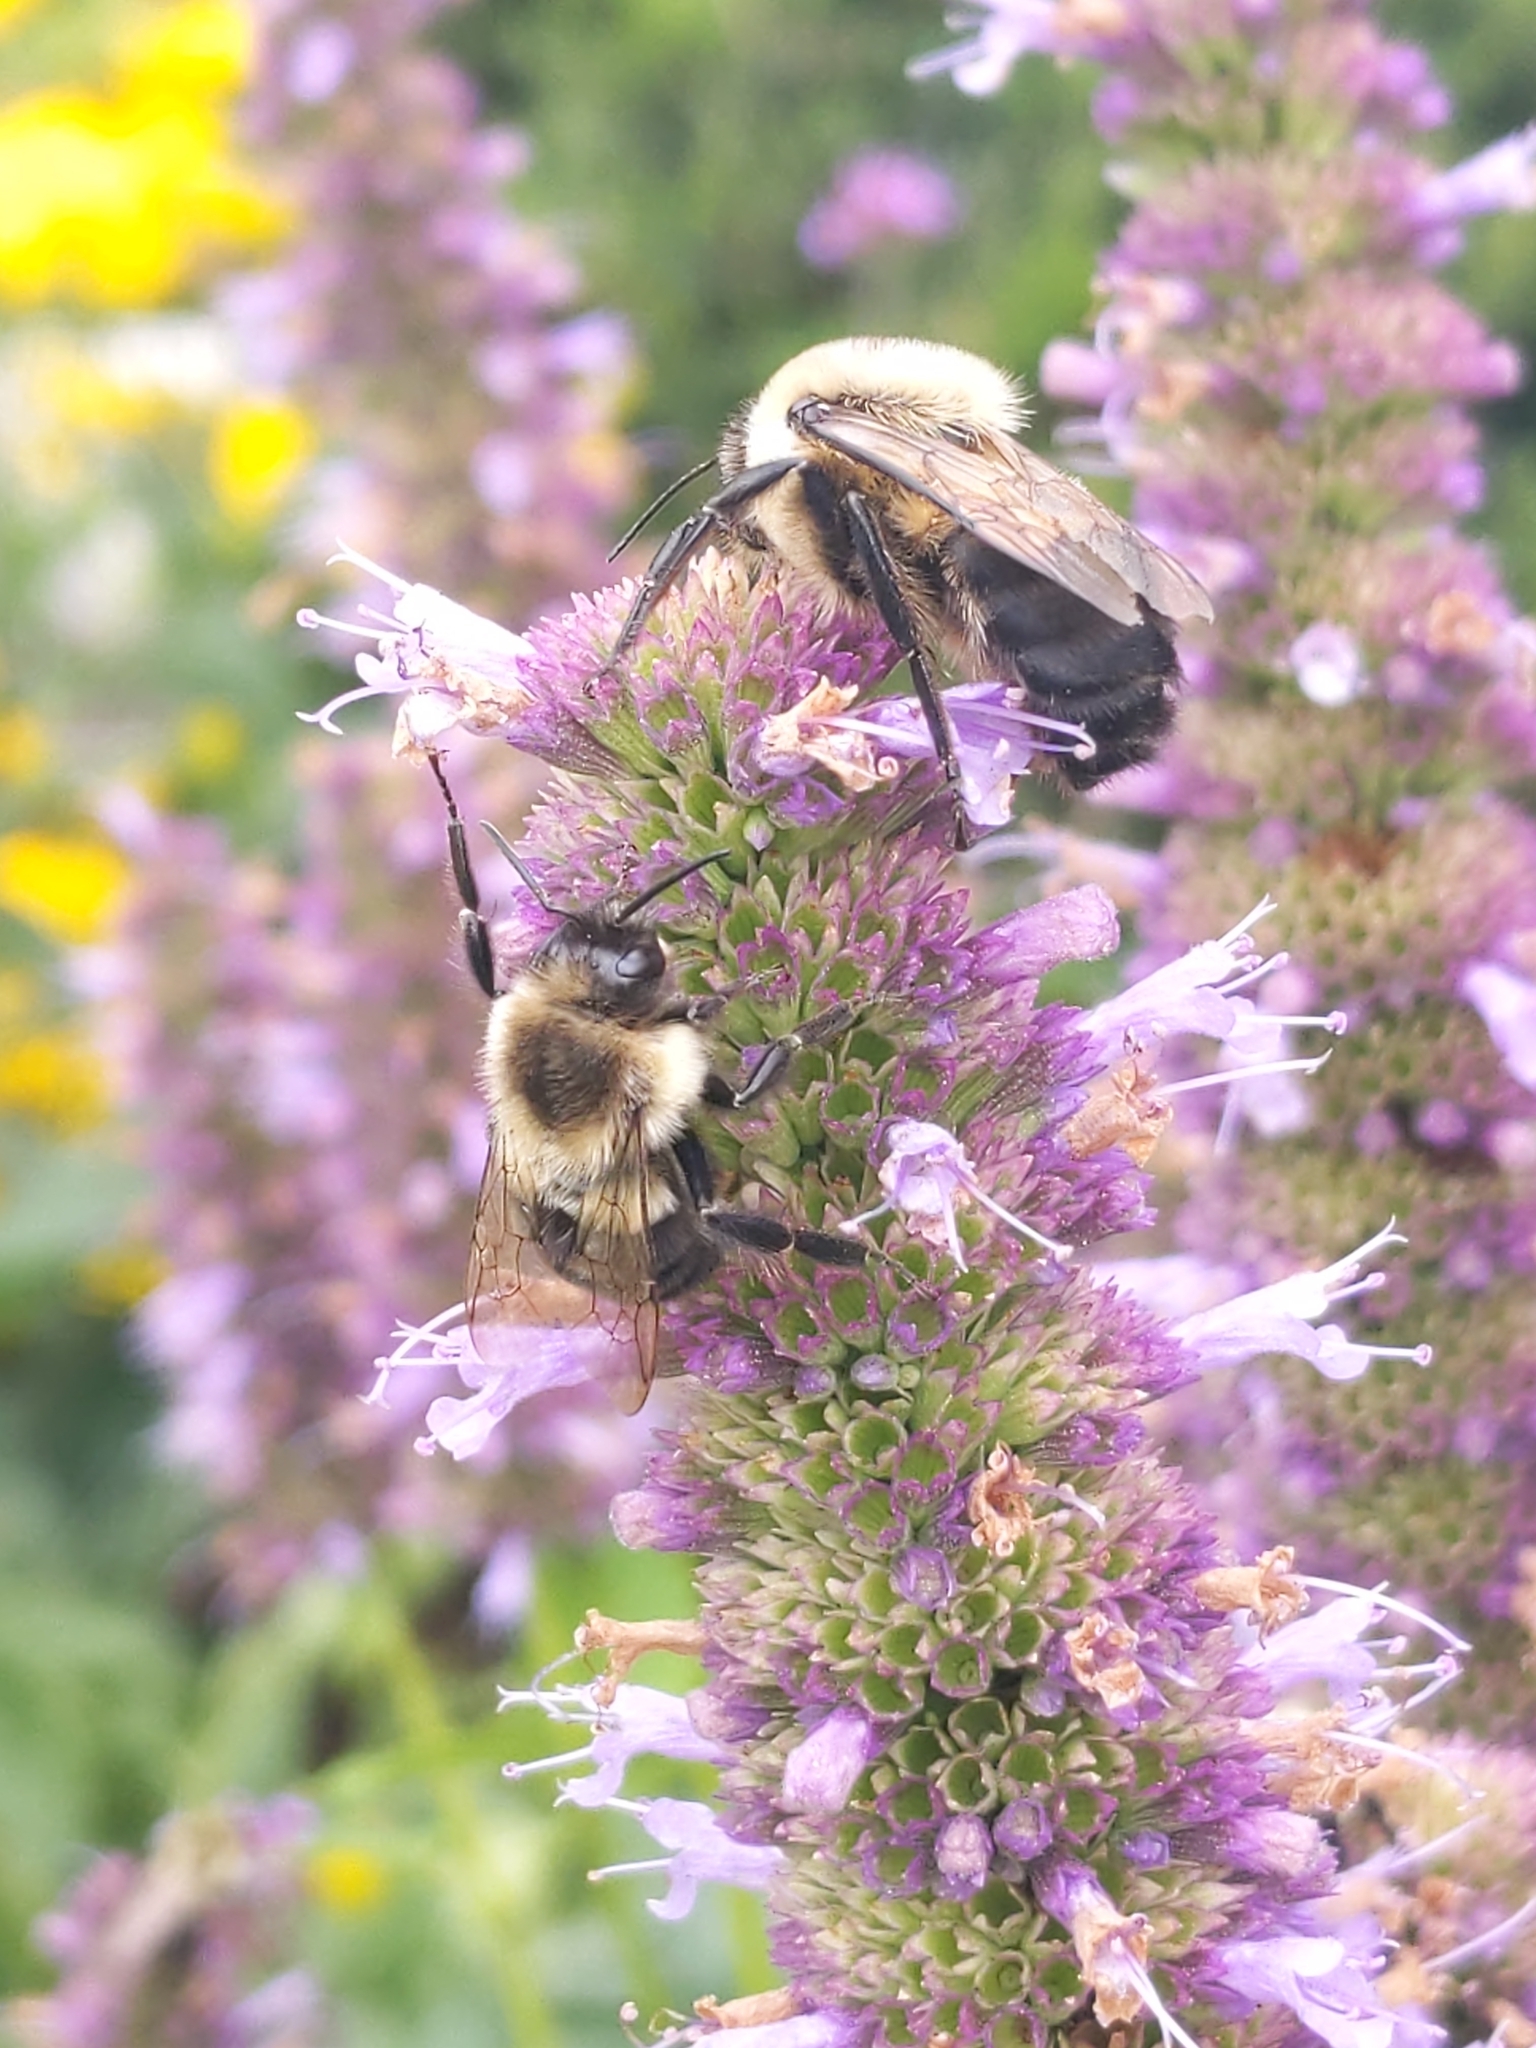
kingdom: Animalia
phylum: Arthropoda
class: Insecta
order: Hymenoptera
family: Apidae
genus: Bombus
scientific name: Bombus impatiens
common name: Common eastern bumble bee
